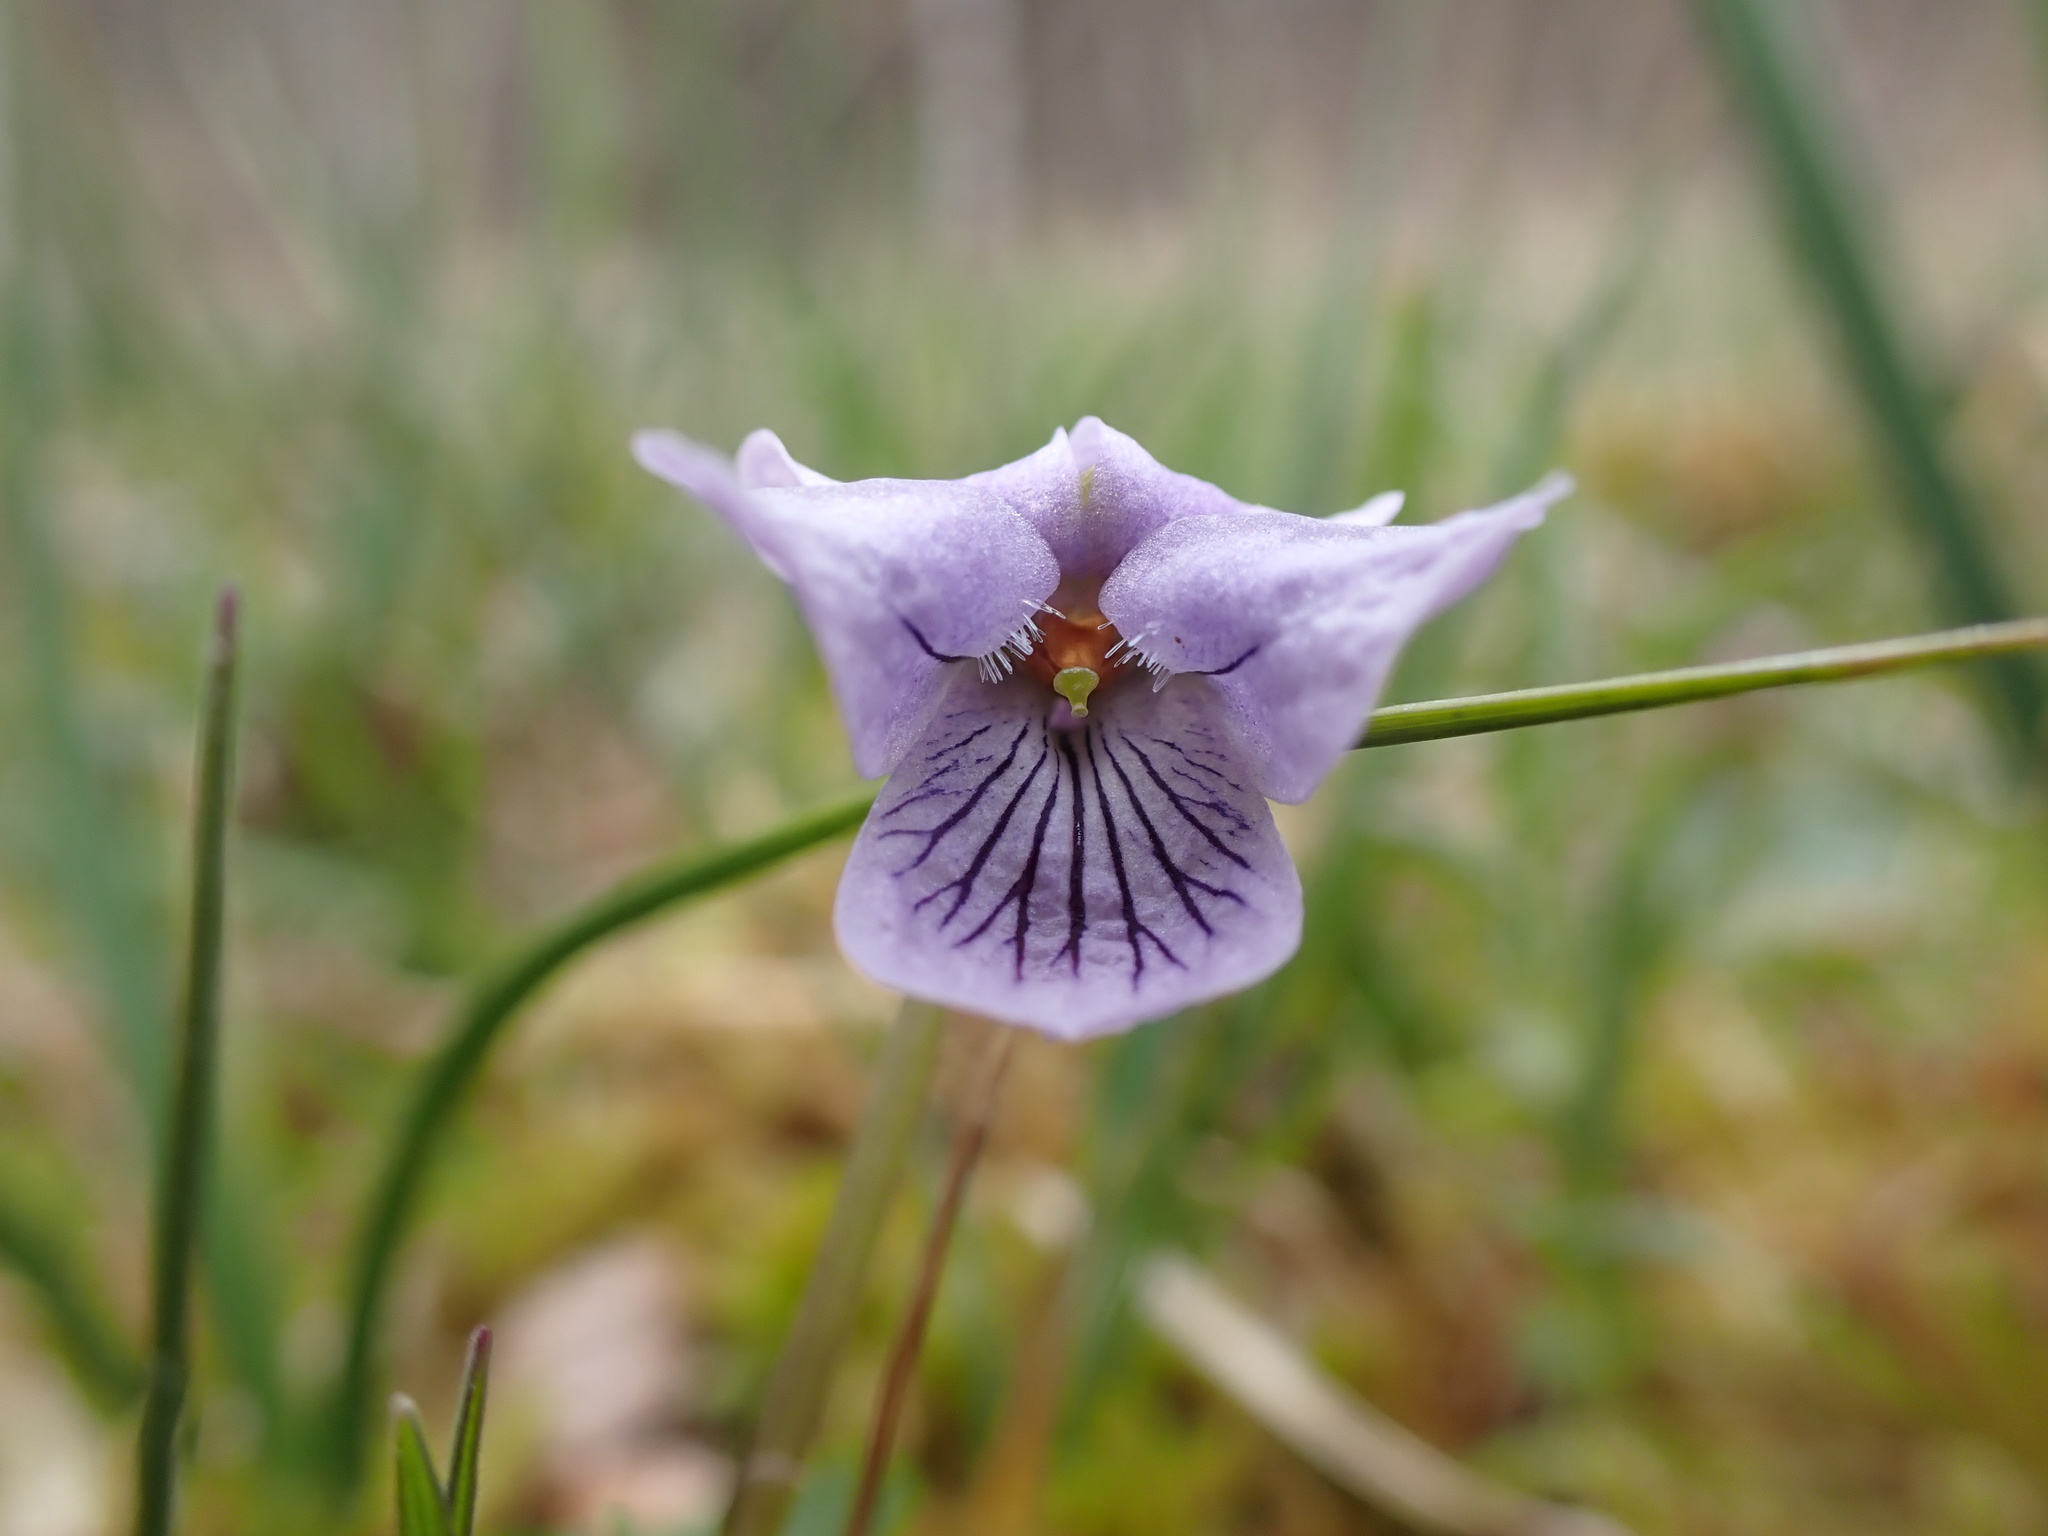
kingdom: Plantae
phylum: Tracheophyta
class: Magnoliopsida
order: Malpighiales
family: Violaceae
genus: Viola
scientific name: Viola palustris
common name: Marsh violet
